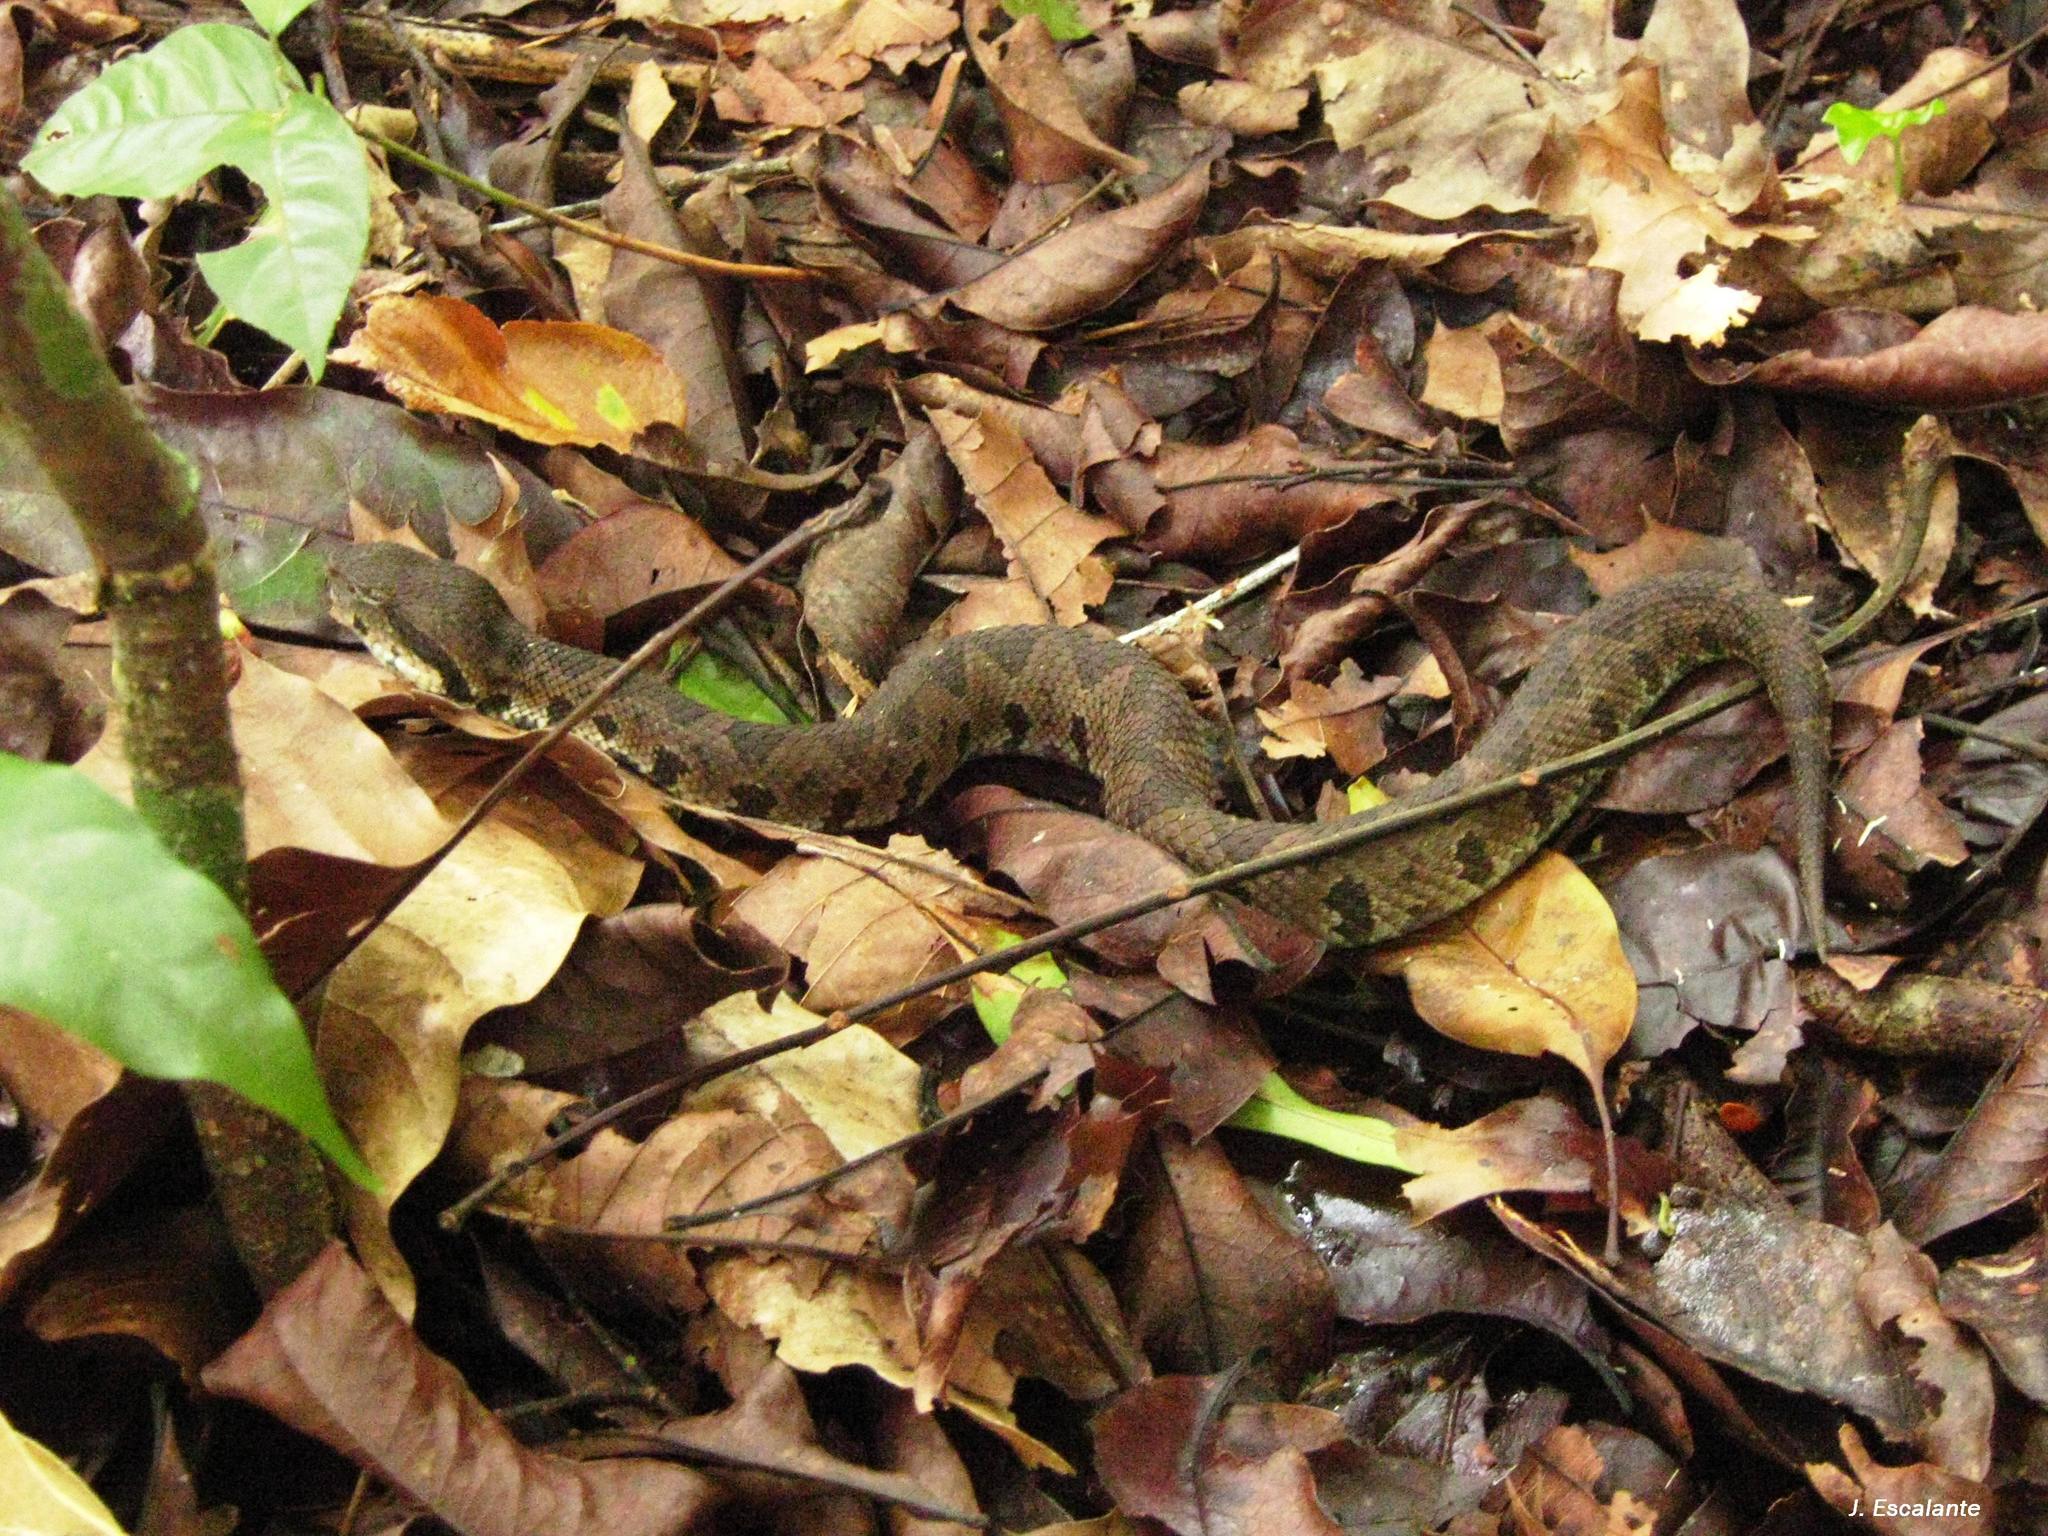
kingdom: Animalia
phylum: Chordata
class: Squamata
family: Viperidae
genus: Metlapilcoatlus
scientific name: Metlapilcoatlus olmec
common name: Olmecan pit viper
